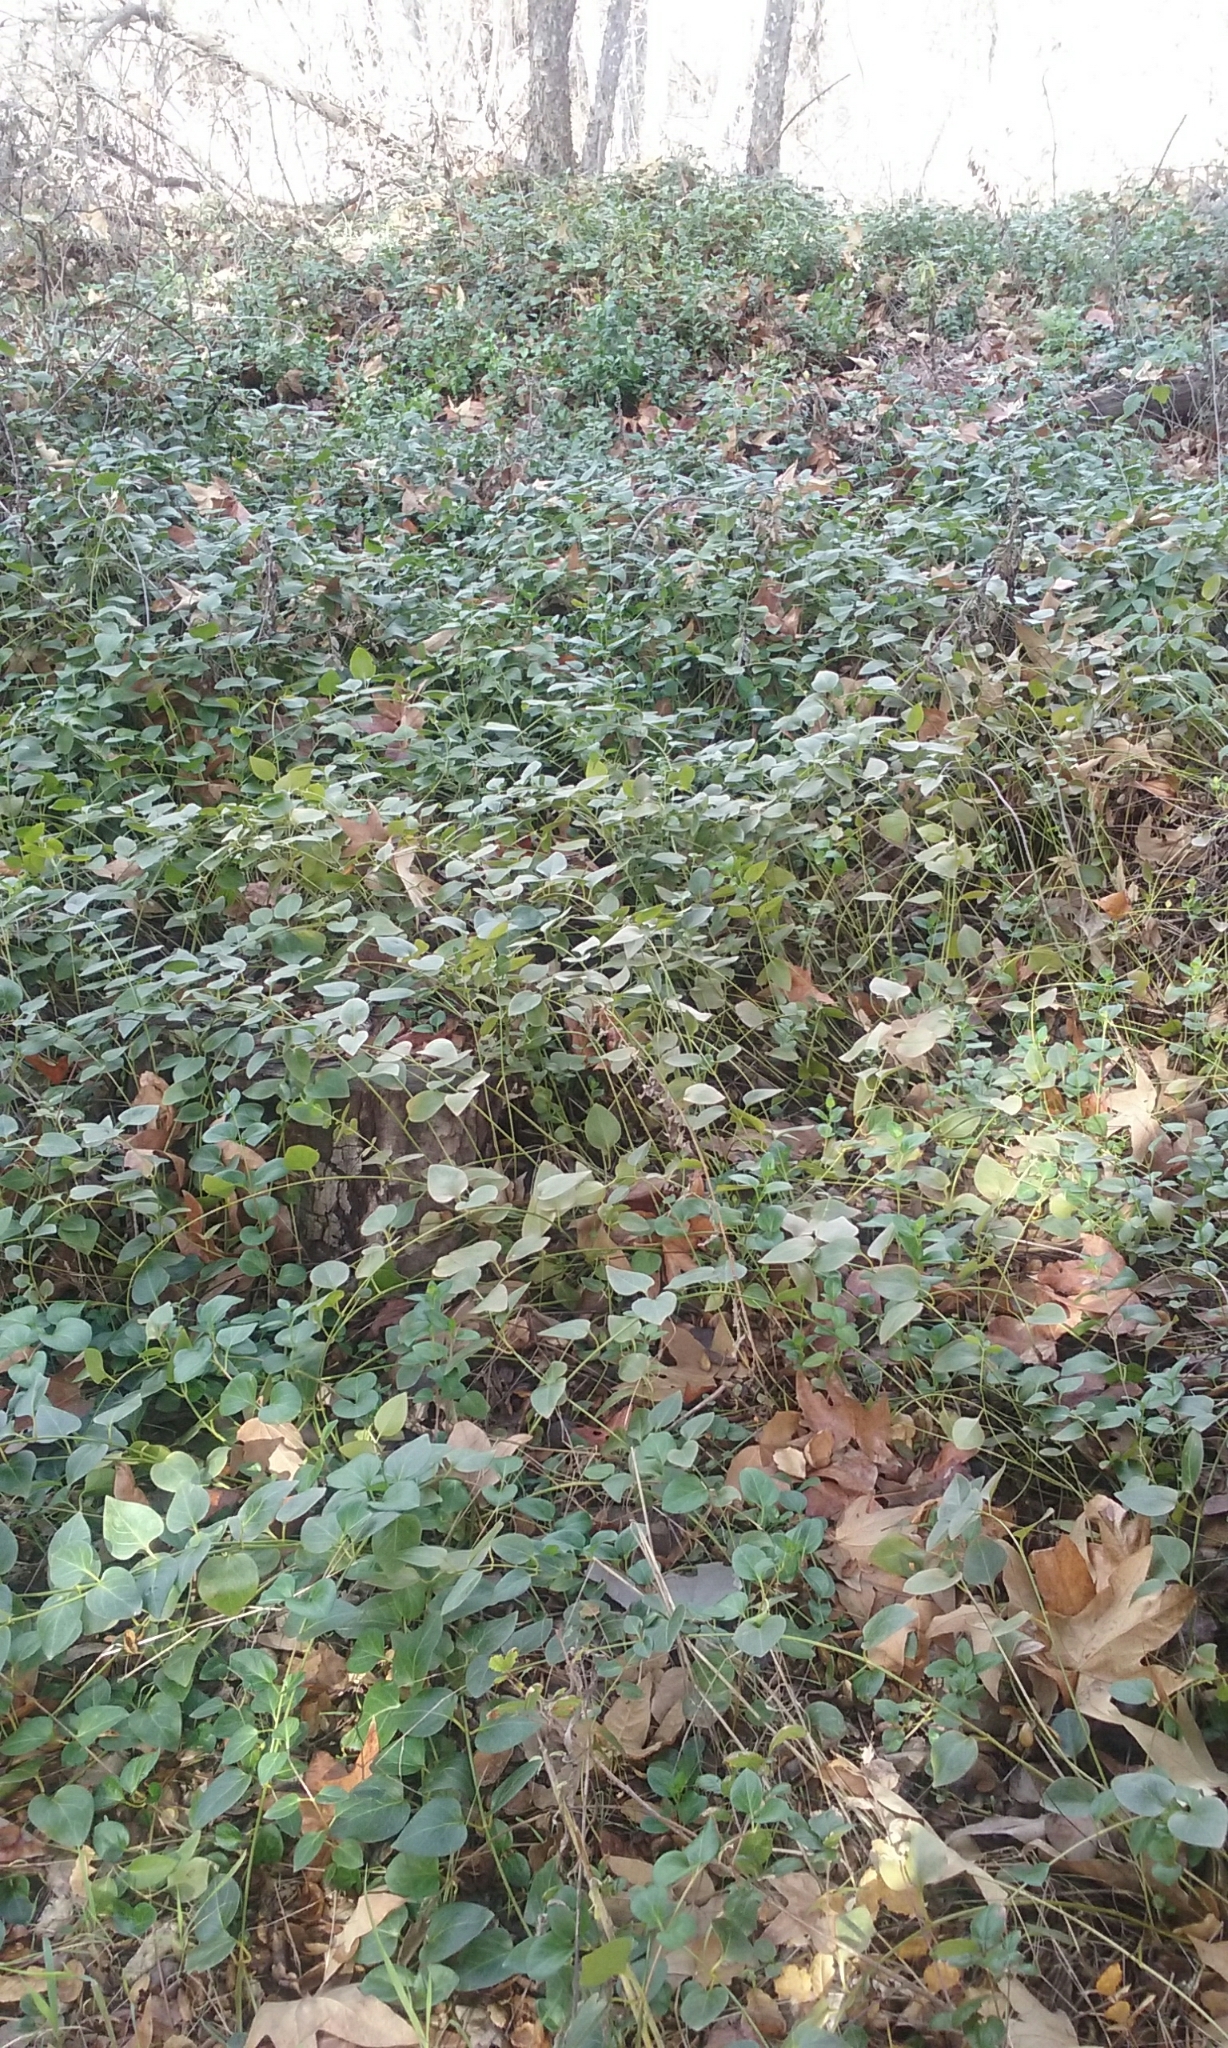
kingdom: Plantae
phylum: Tracheophyta
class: Magnoliopsida
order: Gentianales
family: Apocynaceae
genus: Vinca
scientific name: Vinca major
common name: Greater periwinkle
